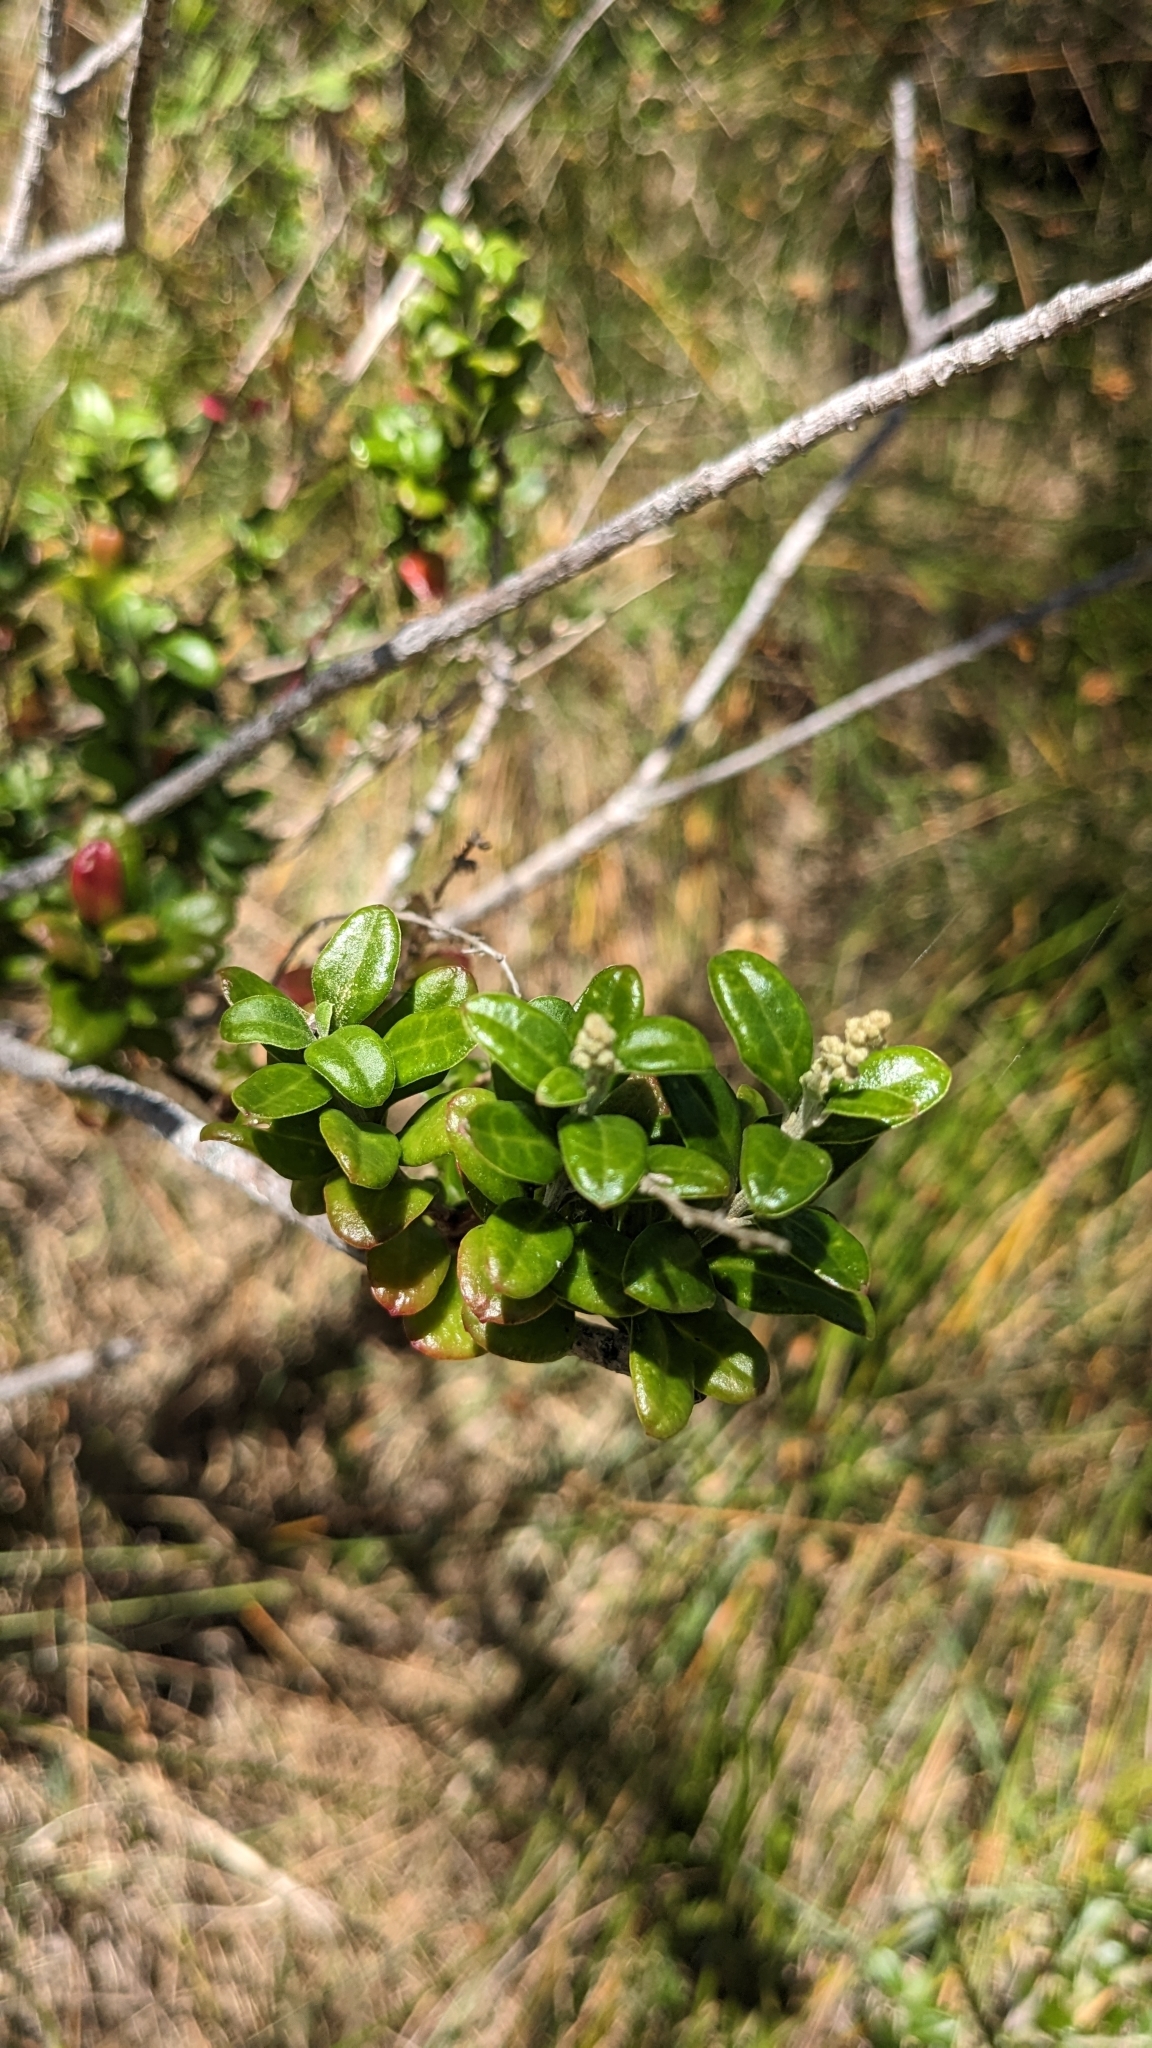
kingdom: Plantae
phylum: Tracheophyta
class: Magnoliopsida
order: Caryophyllales
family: Amaranthaceae
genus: Chenopodium
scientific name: Chenopodium candolleanum
